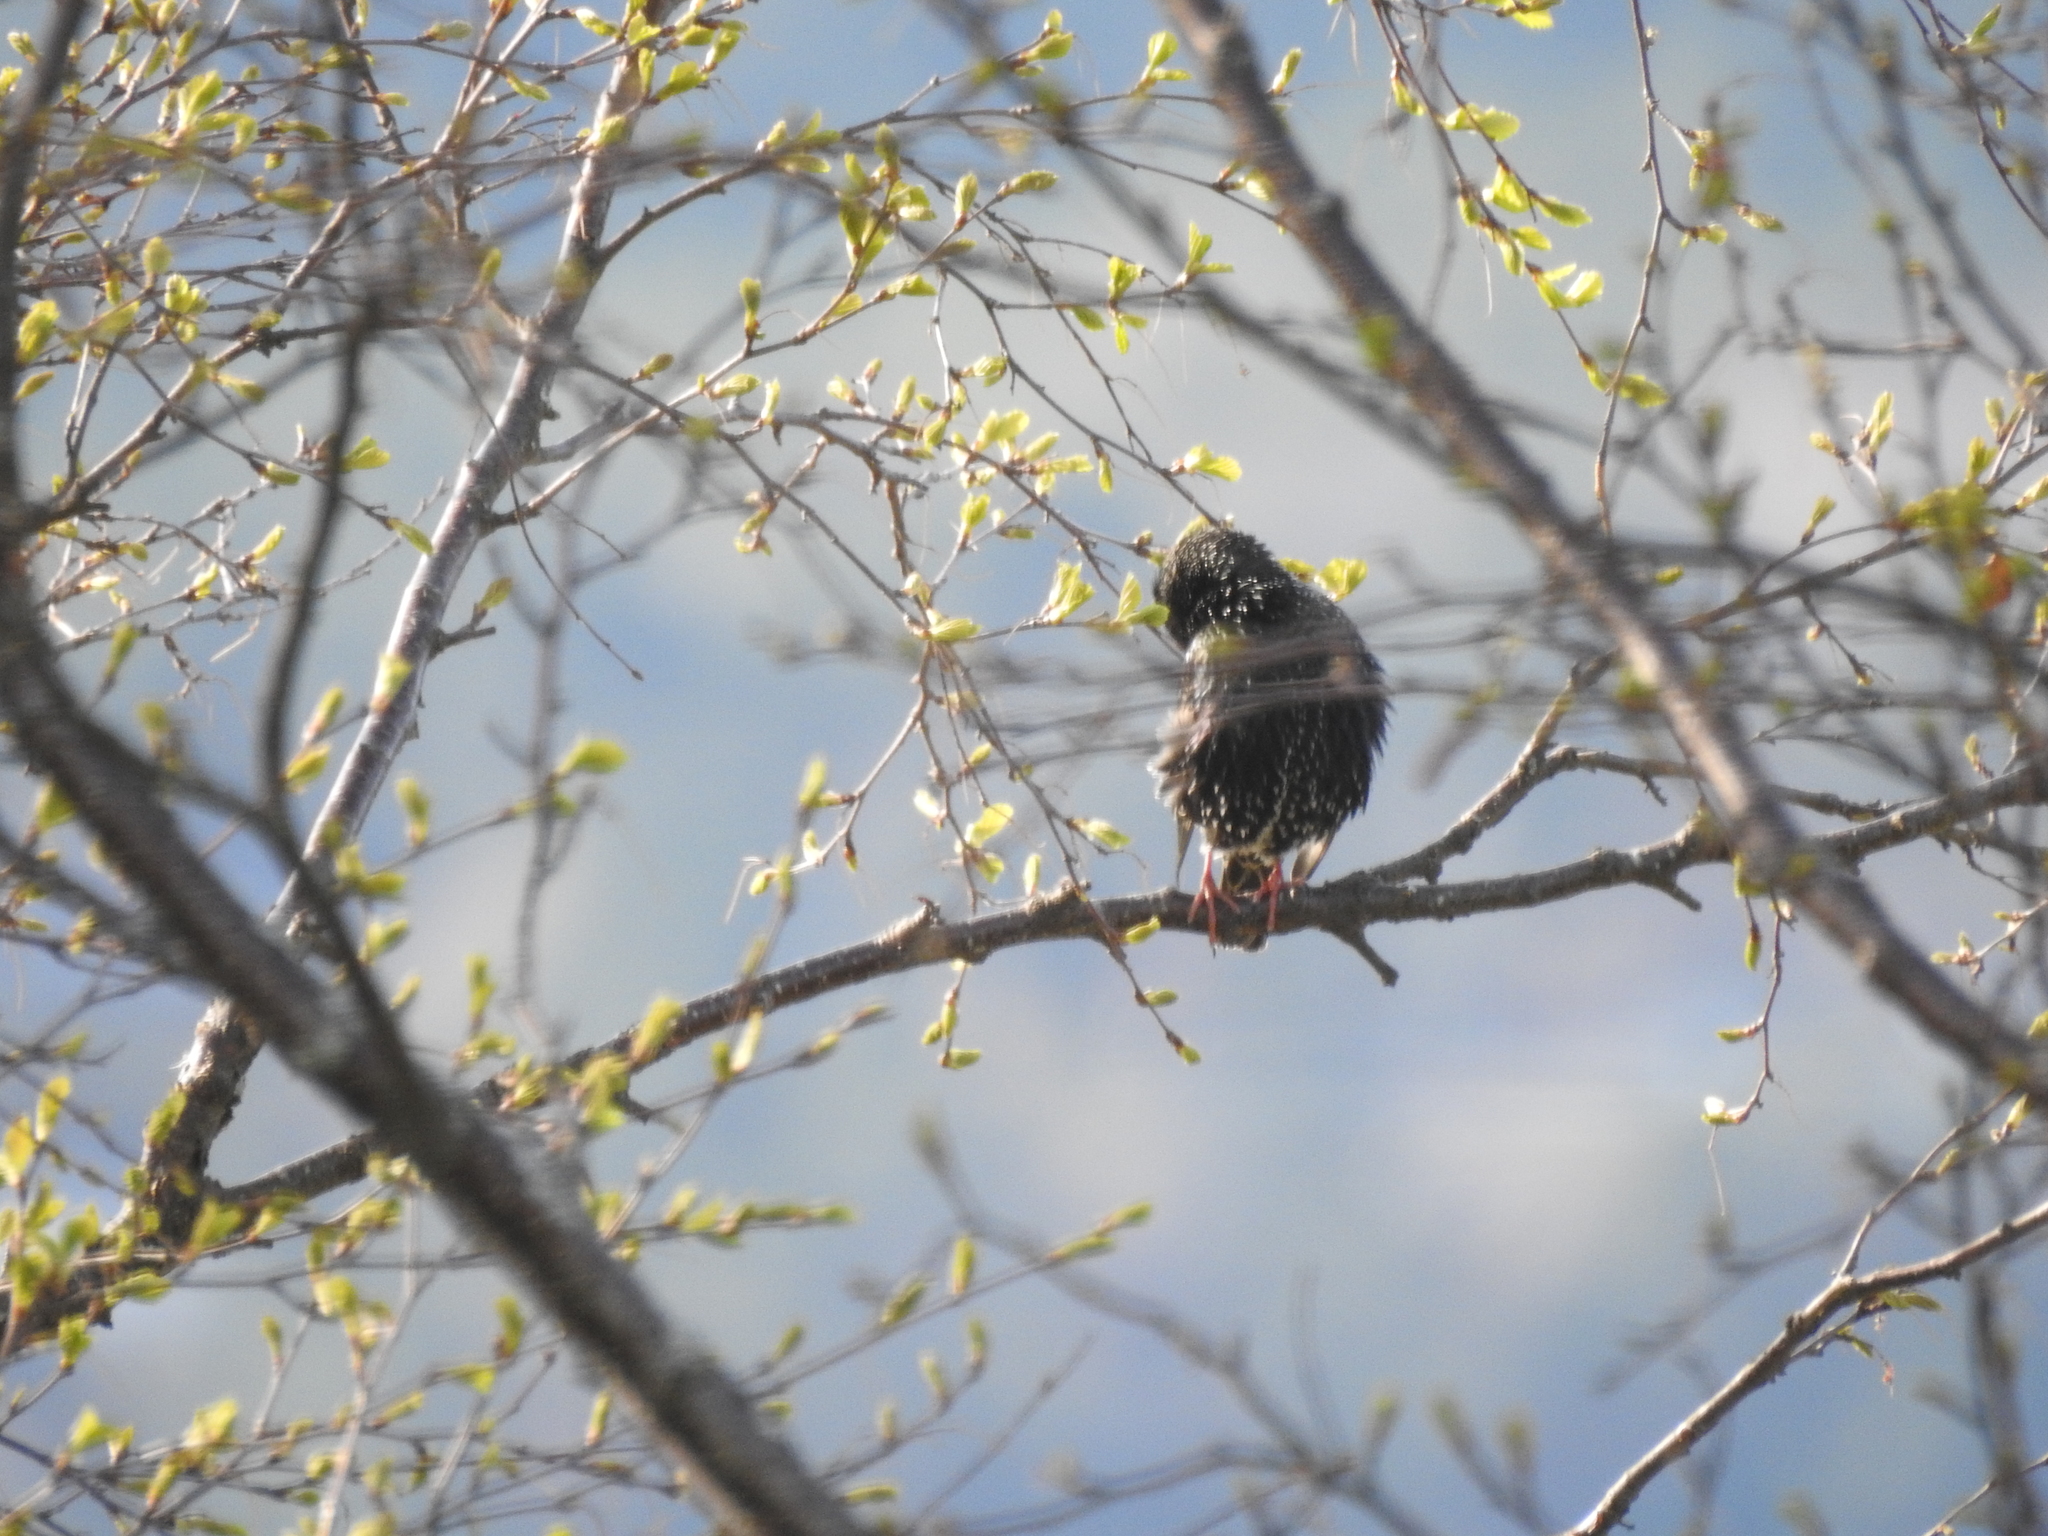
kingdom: Animalia
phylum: Chordata
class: Aves
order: Passeriformes
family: Sturnidae
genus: Sturnus
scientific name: Sturnus vulgaris
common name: Common starling
